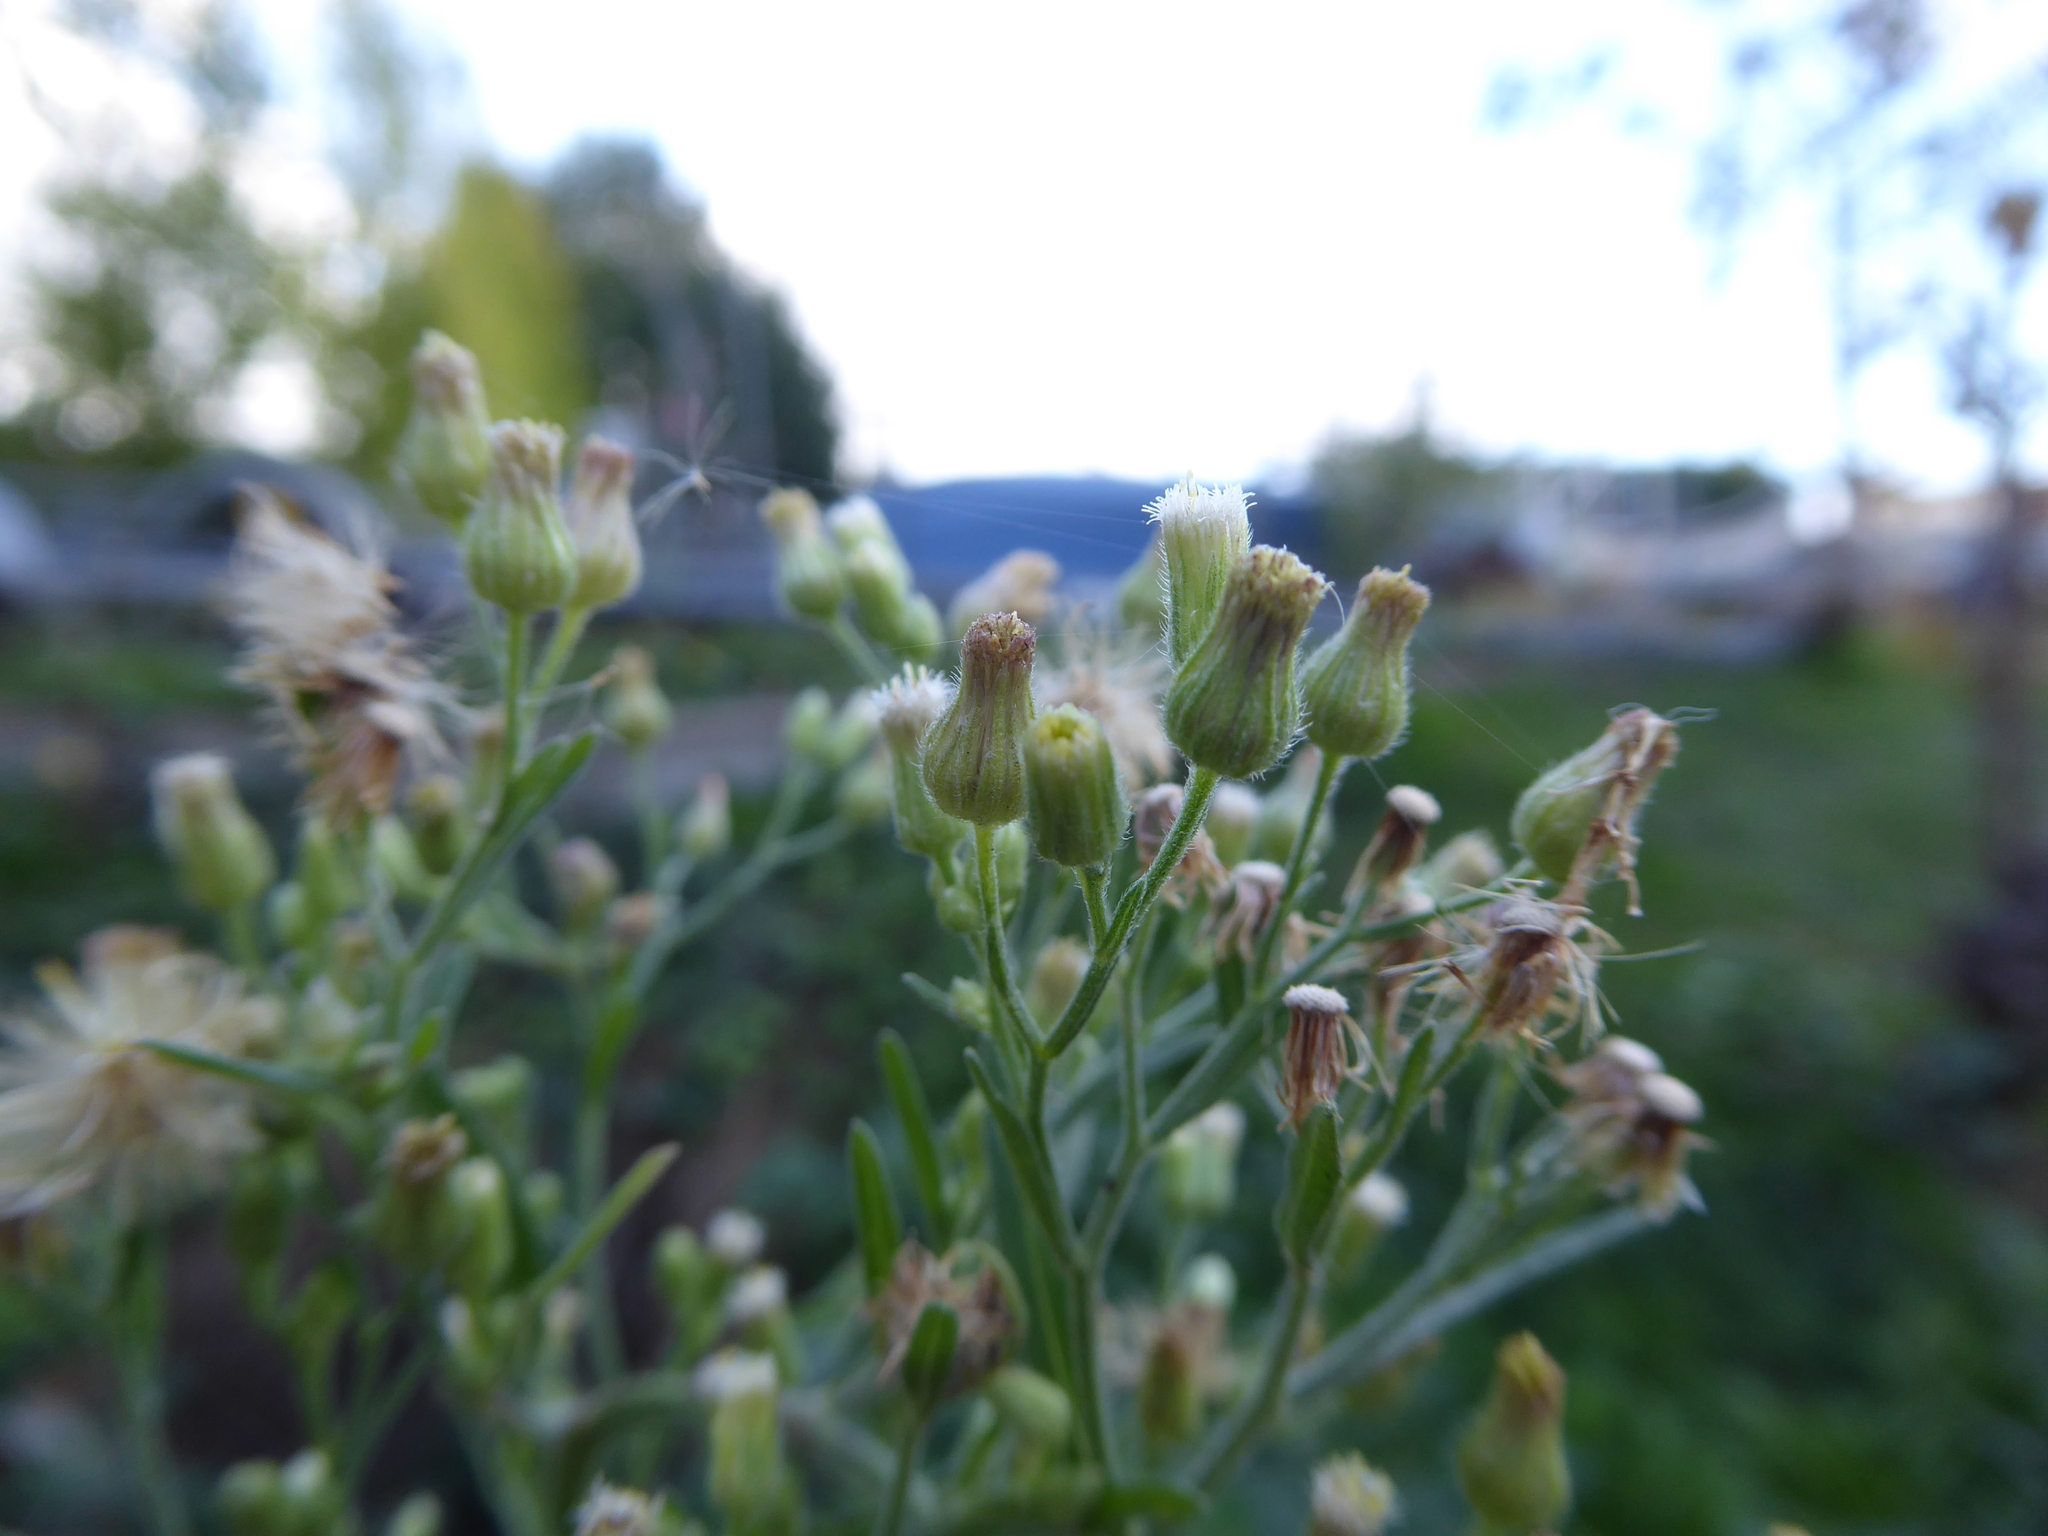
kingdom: Plantae
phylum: Tracheophyta
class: Magnoliopsida
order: Asterales
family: Asteraceae
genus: Erigeron
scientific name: Erigeron sumatrensis
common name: Daisy
